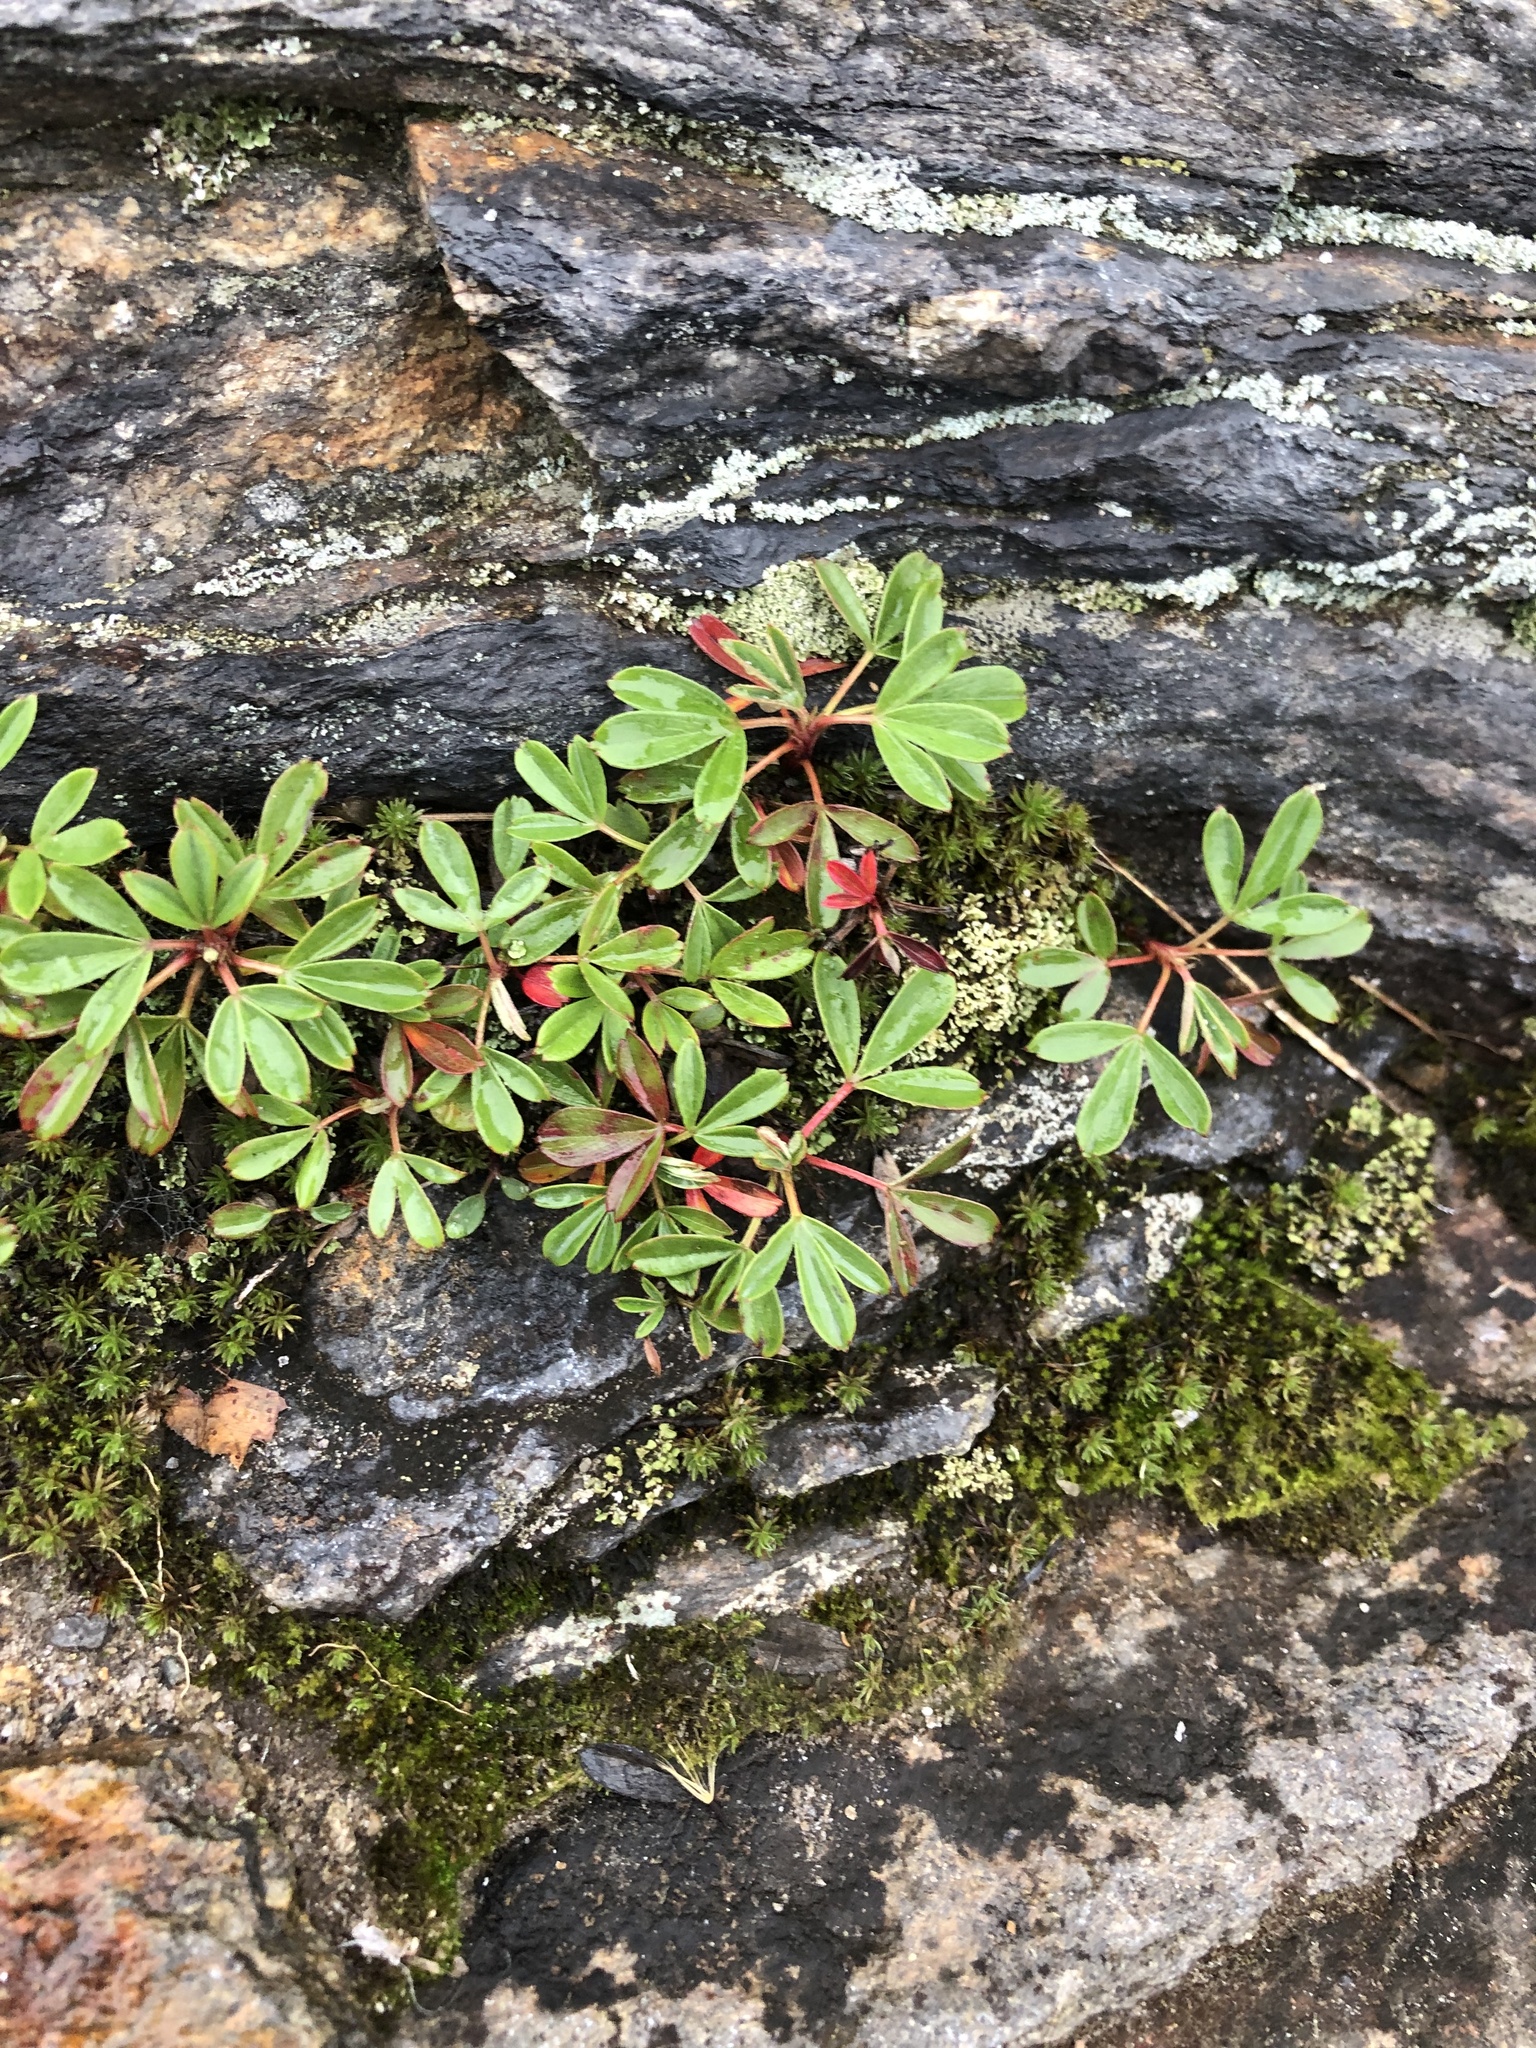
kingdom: Plantae
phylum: Tracheophyta
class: Magnoliopsida
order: Rosales
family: Rosaceae
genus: Sibbaldia
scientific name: Sibbaldia tridentata
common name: Three-toothed cinquefoil
